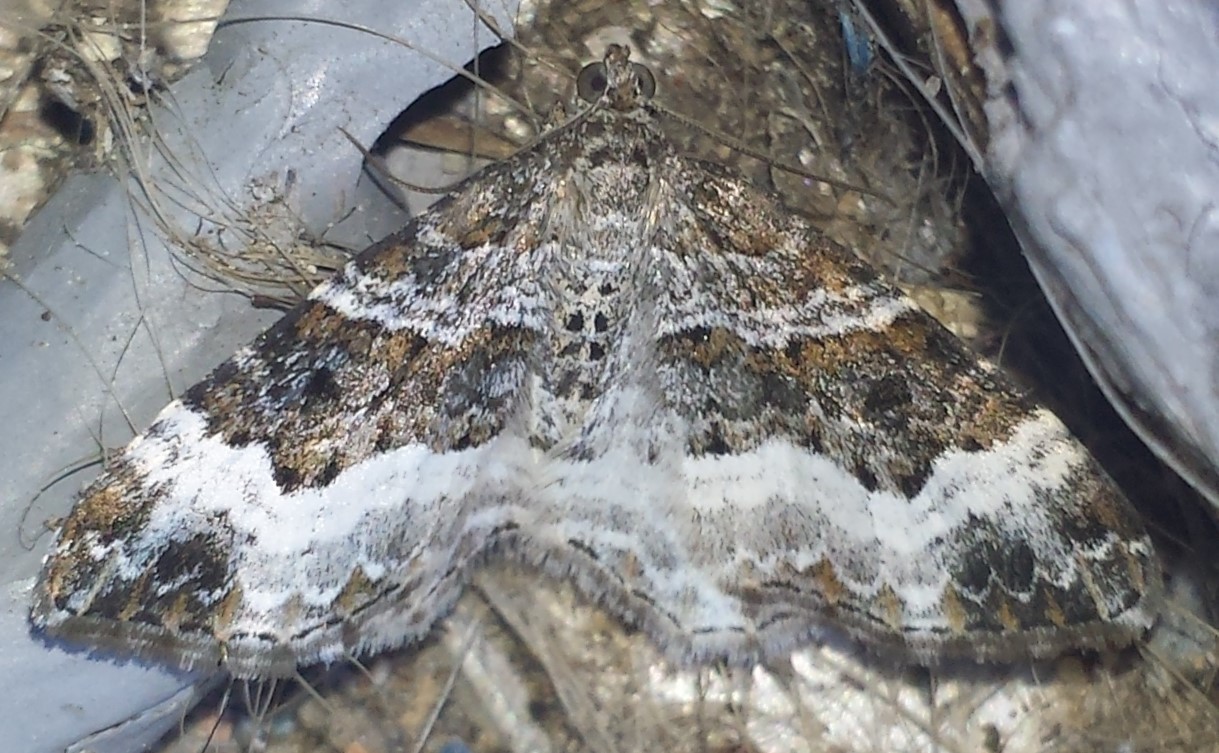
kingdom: Animalia
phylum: Arthropoda
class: Insecta
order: Lepidoptera
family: Geometridae
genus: Epirrhoe
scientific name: Epirrhoe alternata
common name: Common carpet
